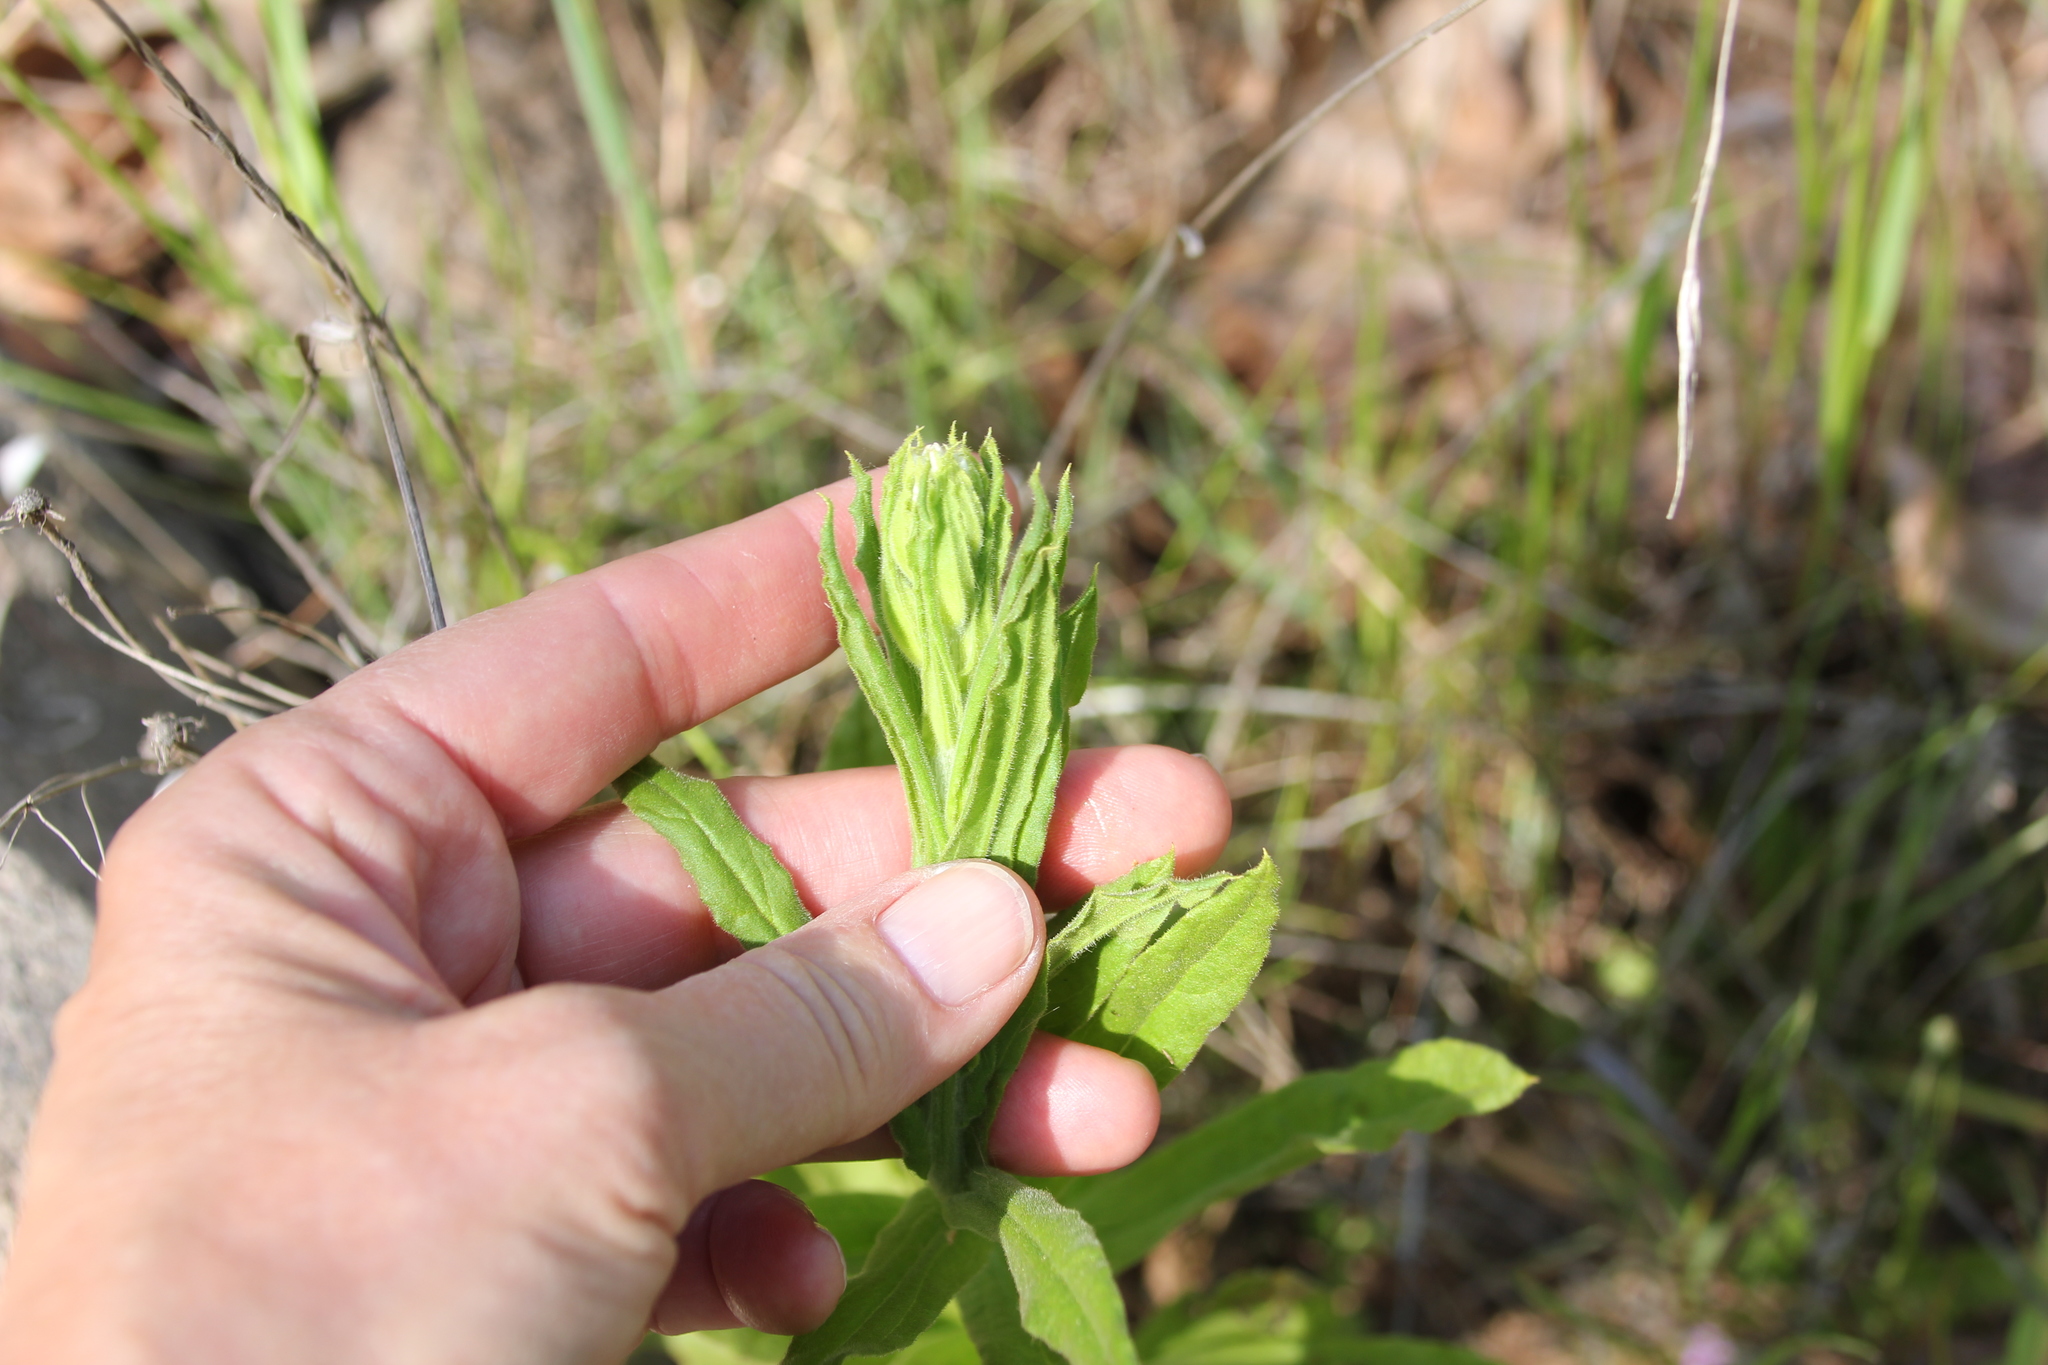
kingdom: Plantae
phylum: Tracheophyta
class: Magnoliopsida
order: Asterales
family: Asteraceae
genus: Pseudognaphalium
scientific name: Pseudognaphalium californicum
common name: California rabbit-tobacco
